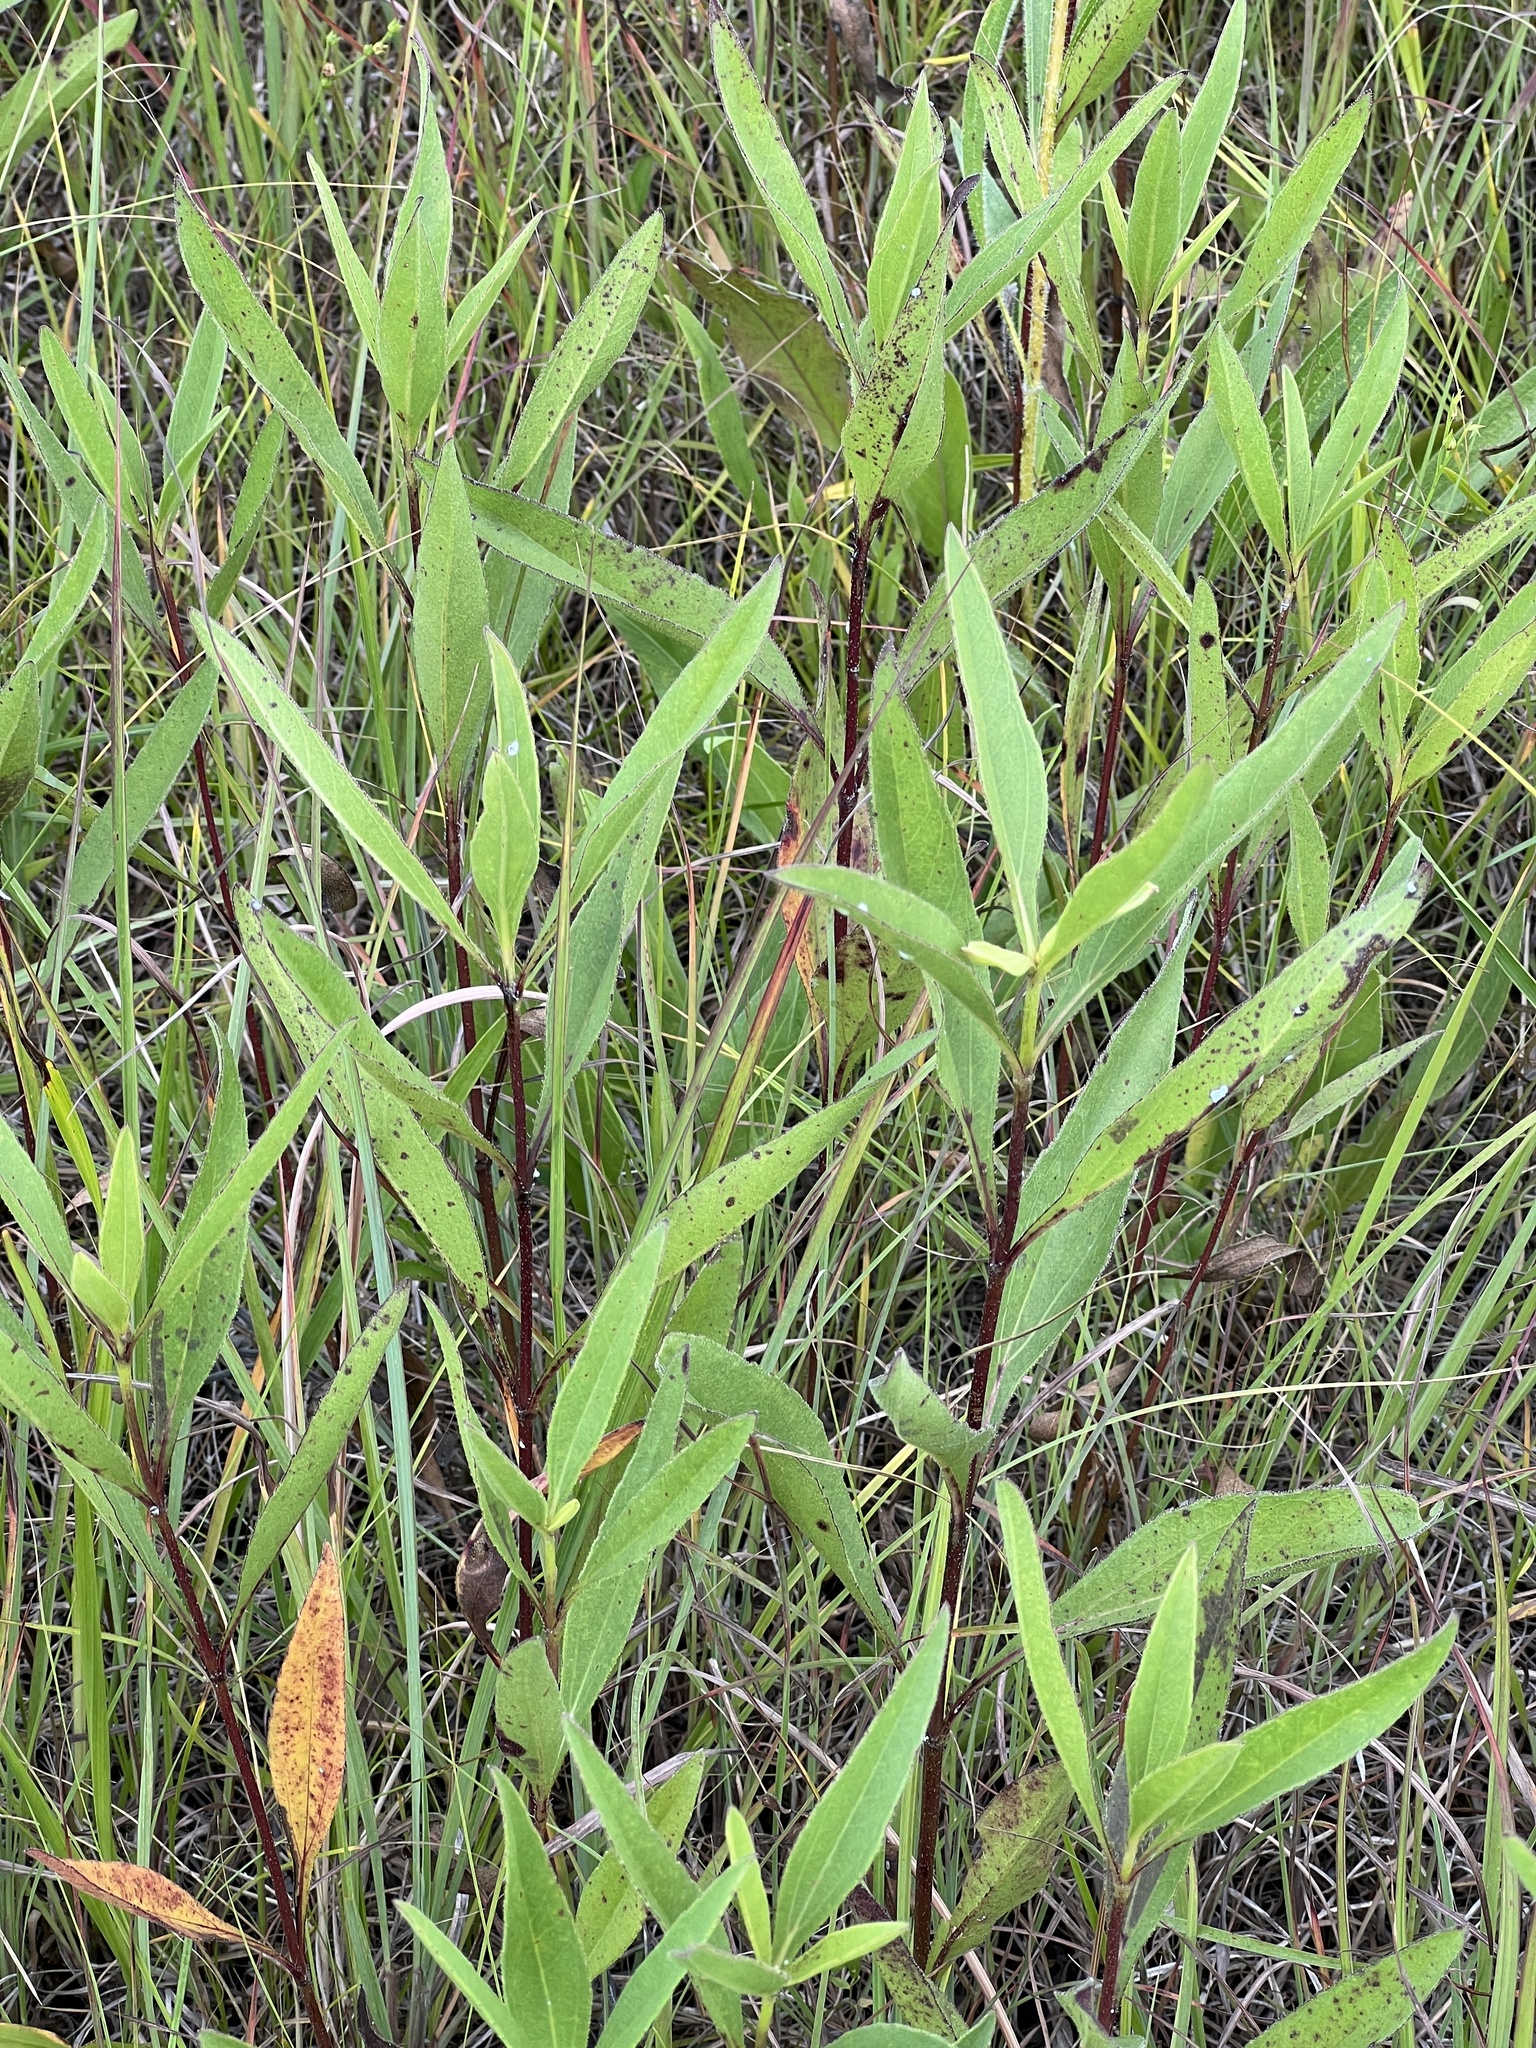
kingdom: Plantae
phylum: Tracheophyta
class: Magnoliopsida
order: Asterales
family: Asteraceae
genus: Helianthus
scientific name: Helianthus pauciflorus
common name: Stiff sunflower
